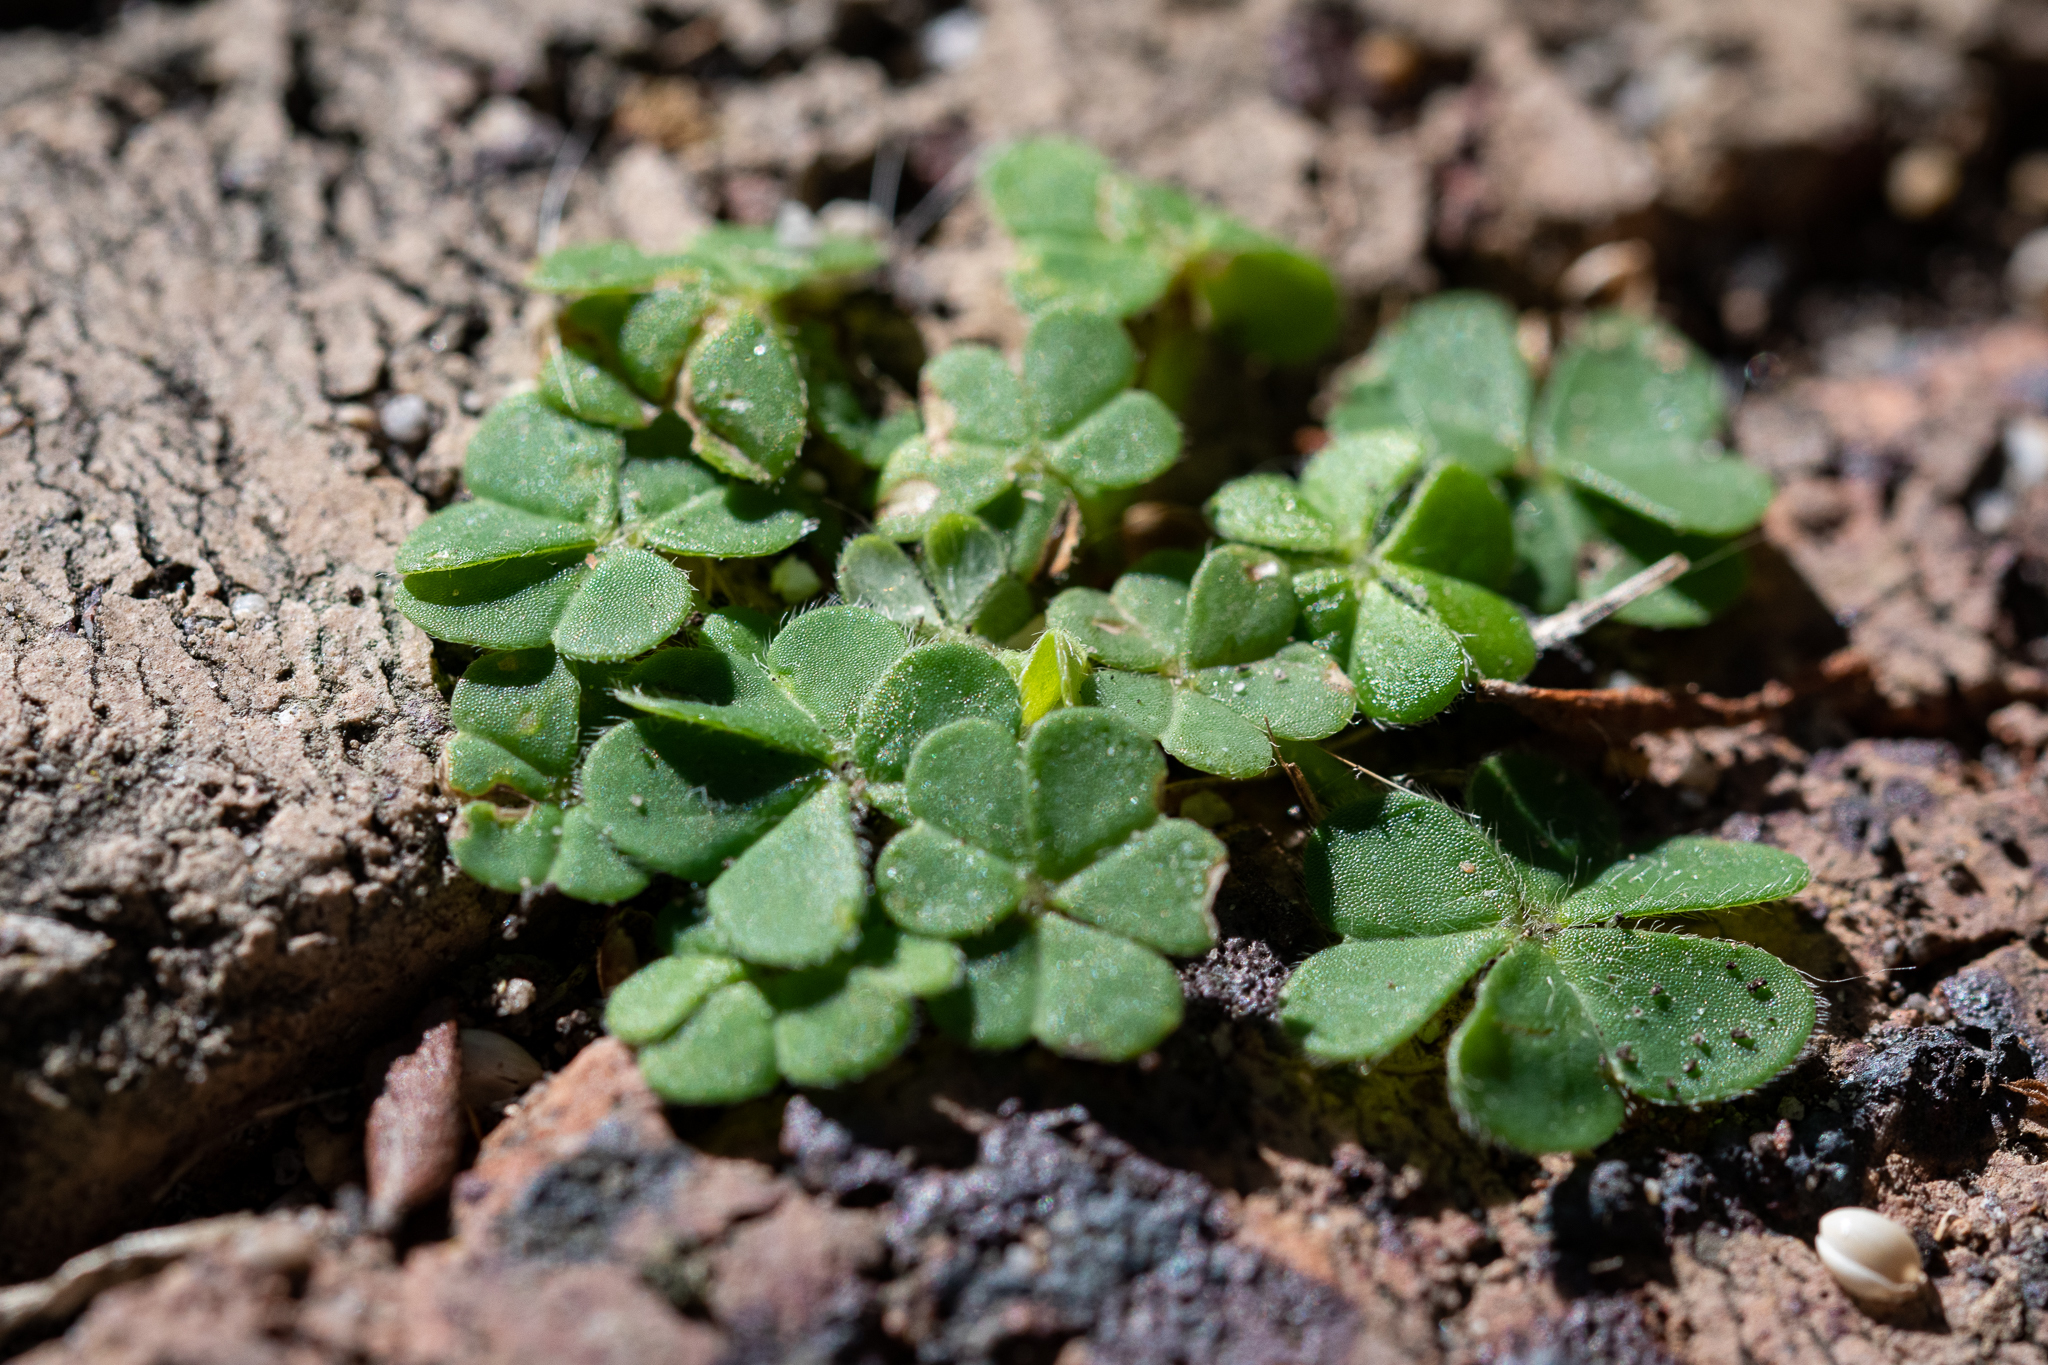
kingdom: Plantae
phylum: Tracheophyta
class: Magnoliopsida
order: Oxalidales
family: Oxalidaceae
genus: Oxalis
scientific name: Oxalis pes-caprae
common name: Bermuda-buttercup
